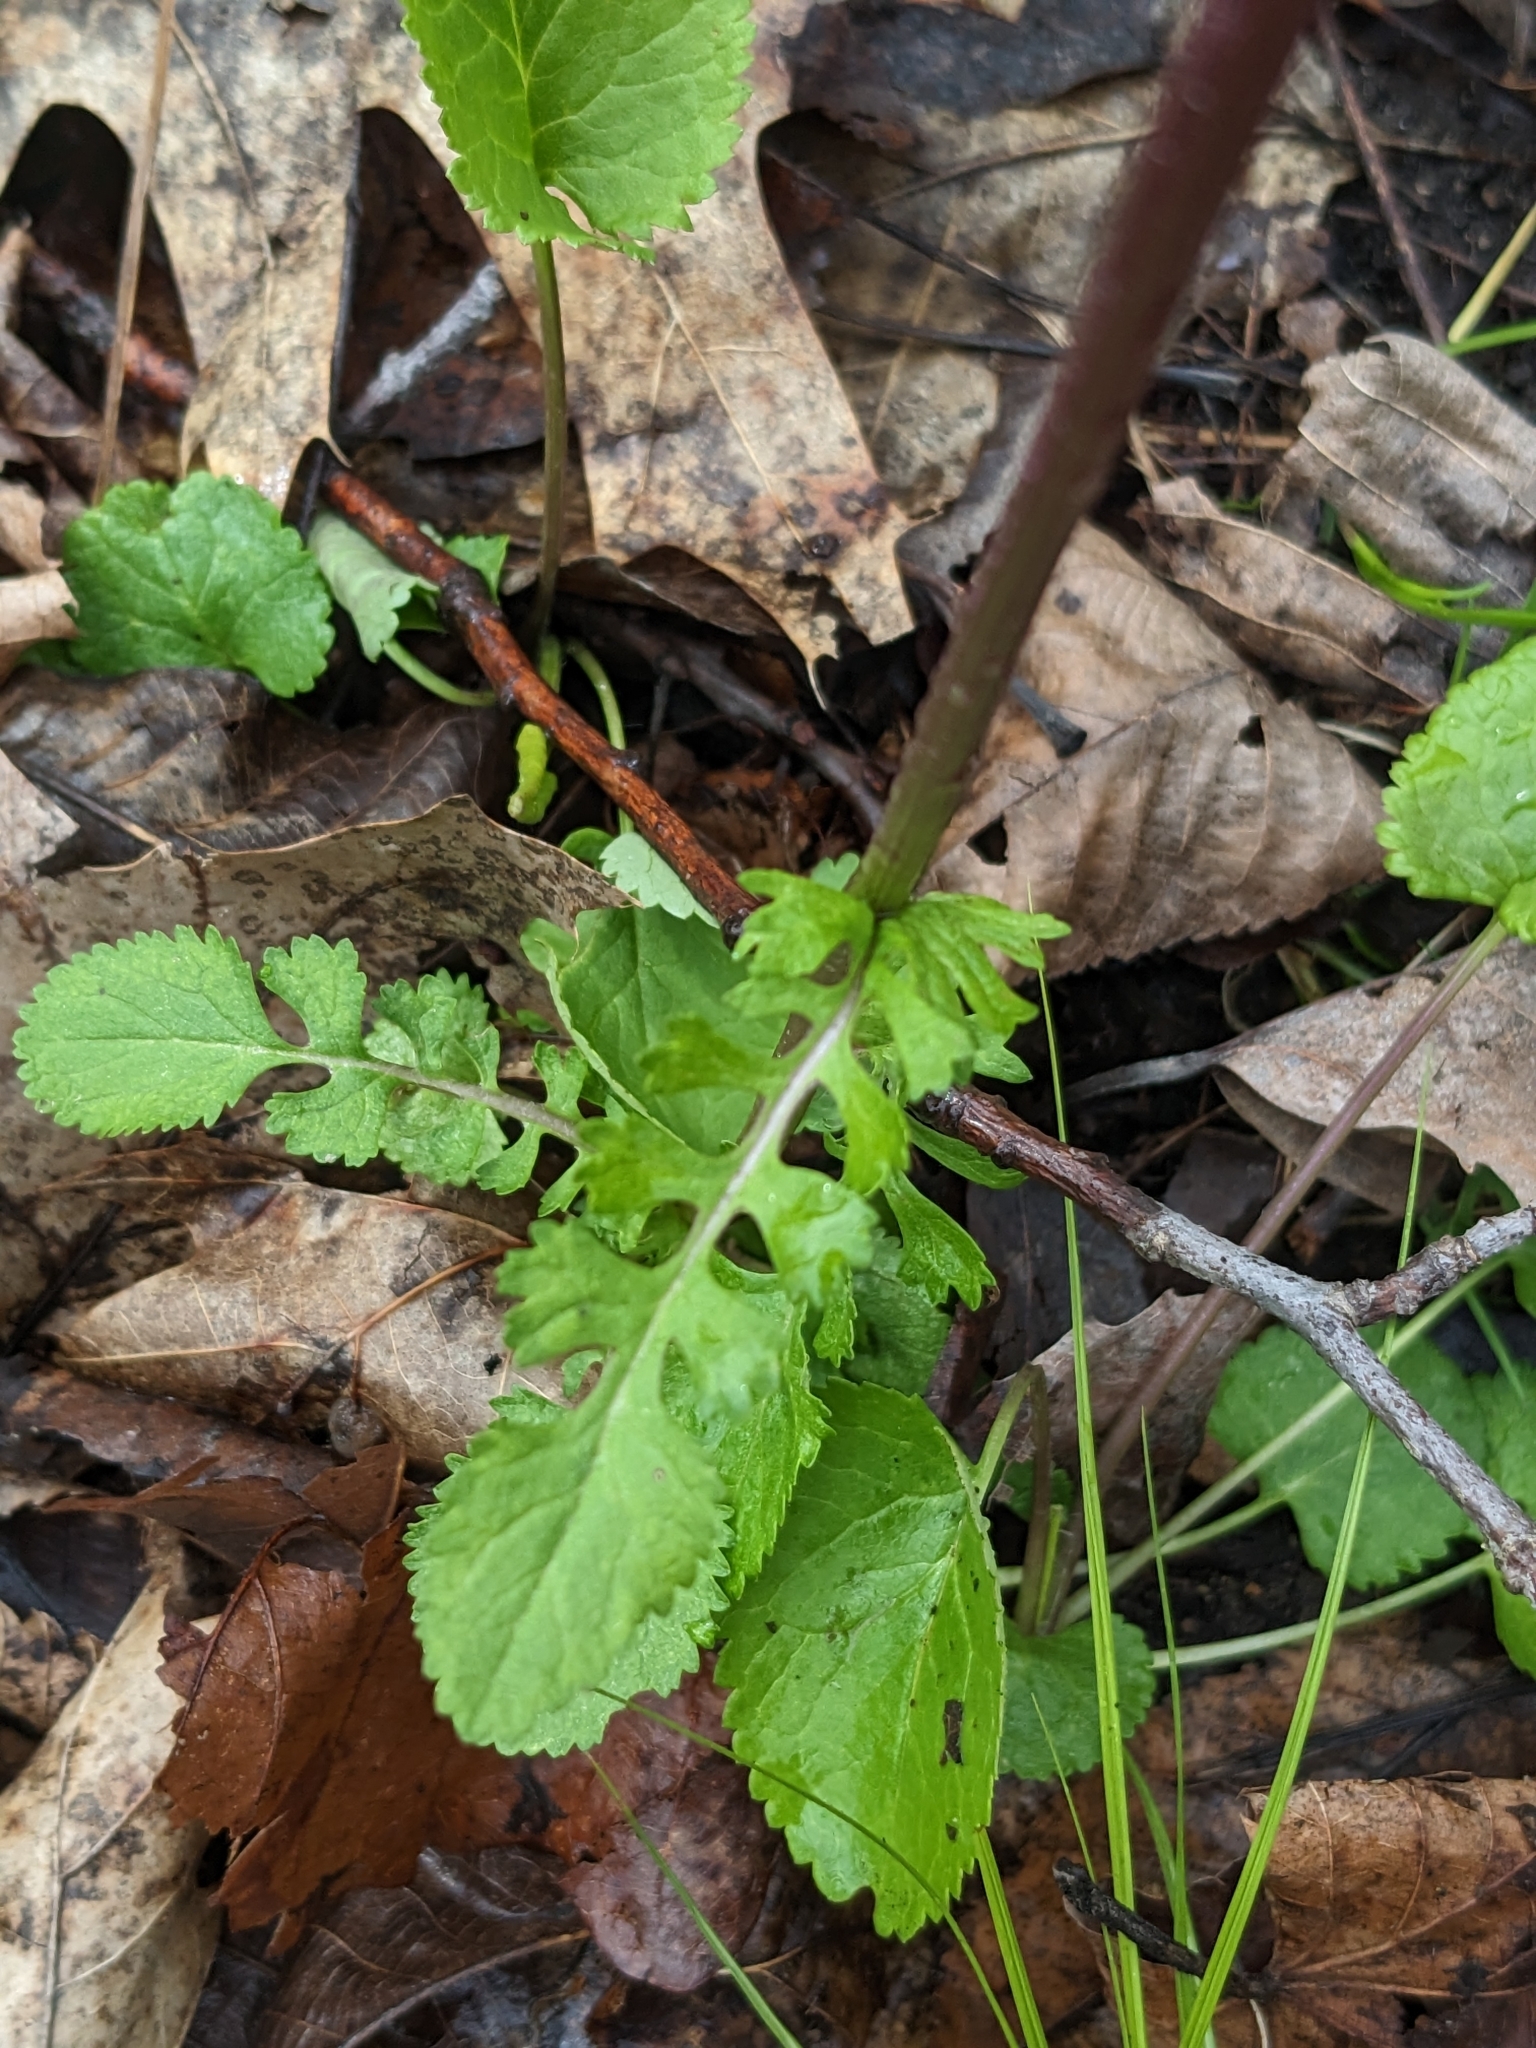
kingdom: Plantae
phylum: Tracheophyta
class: Magnoliopsida
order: Asterales
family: Asteraceae
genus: Packera
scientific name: Packera aurea
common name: Golden groundsel
